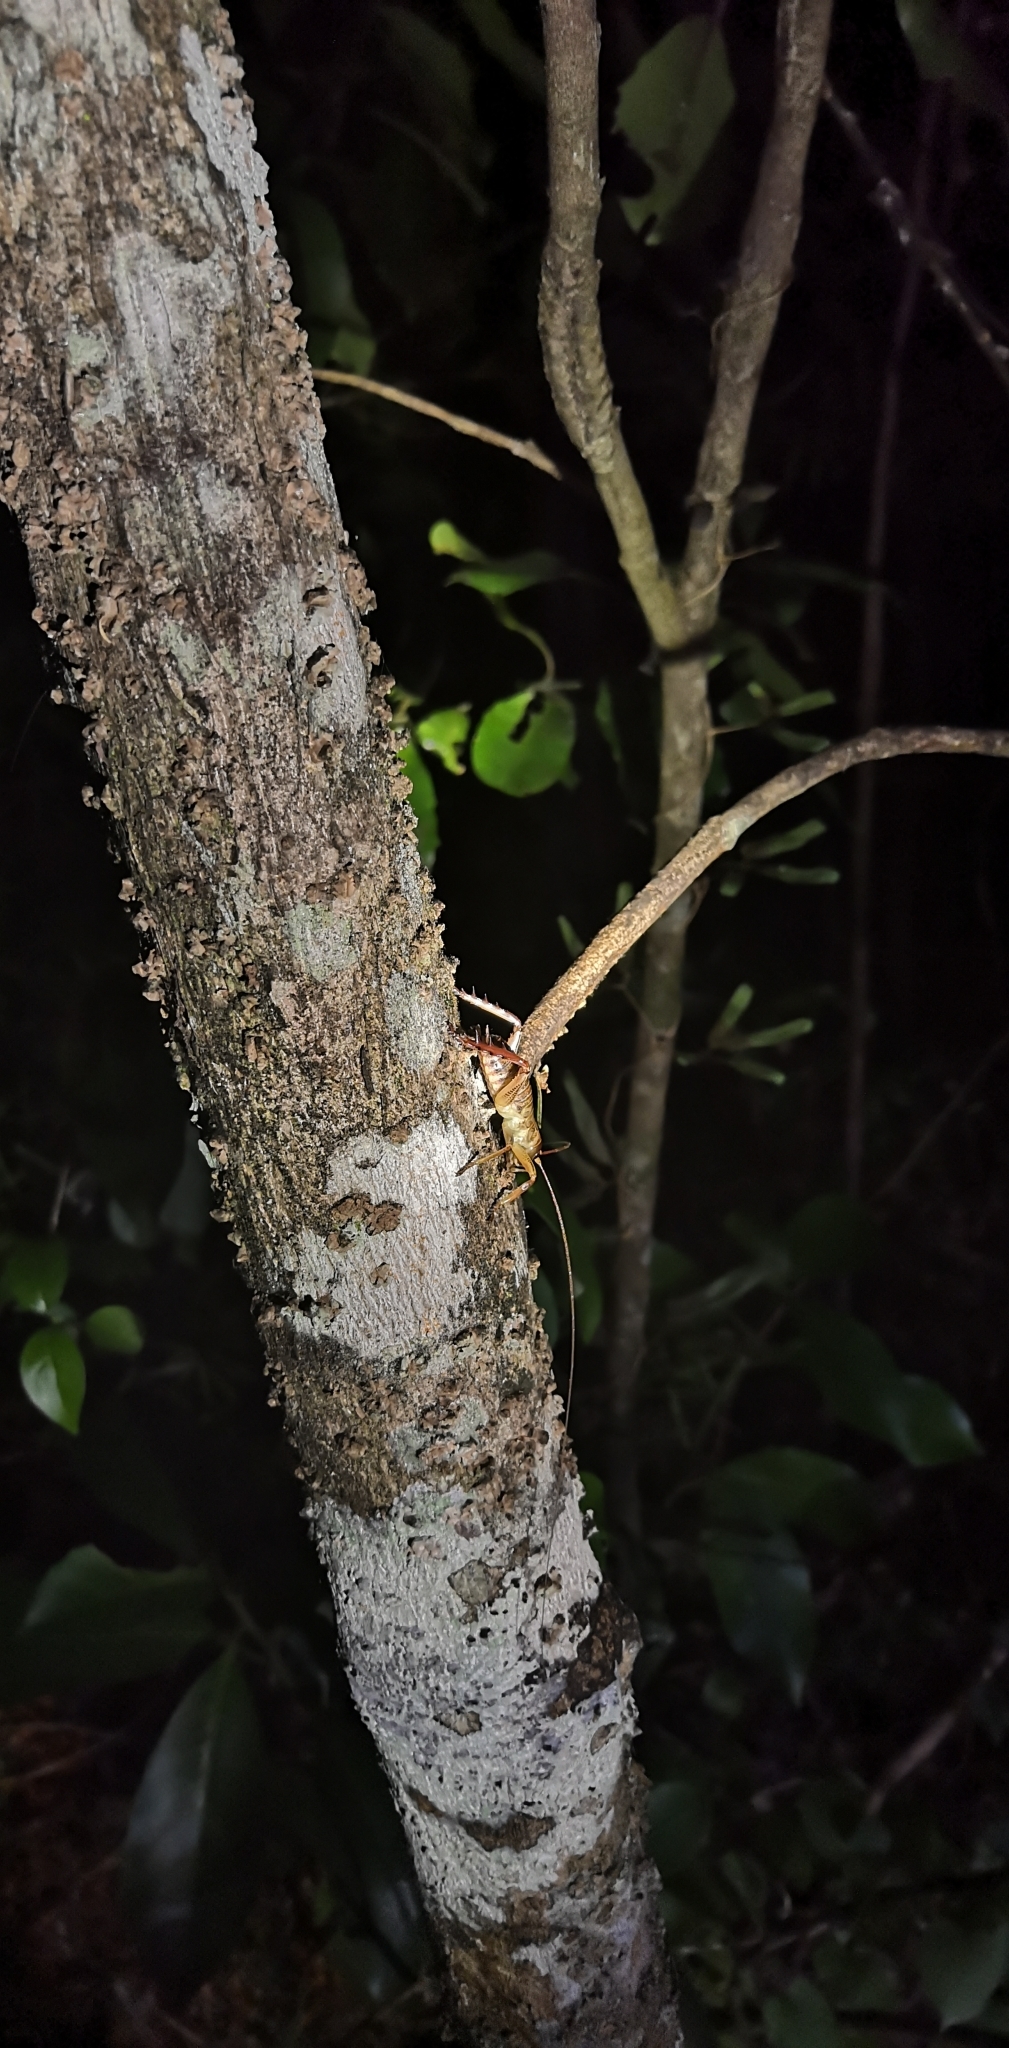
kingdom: Animalia
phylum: Arthropoda
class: Insecta
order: Orthoptera
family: Anostostomatidae
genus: Hemideina
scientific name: Hemideina thoracica
